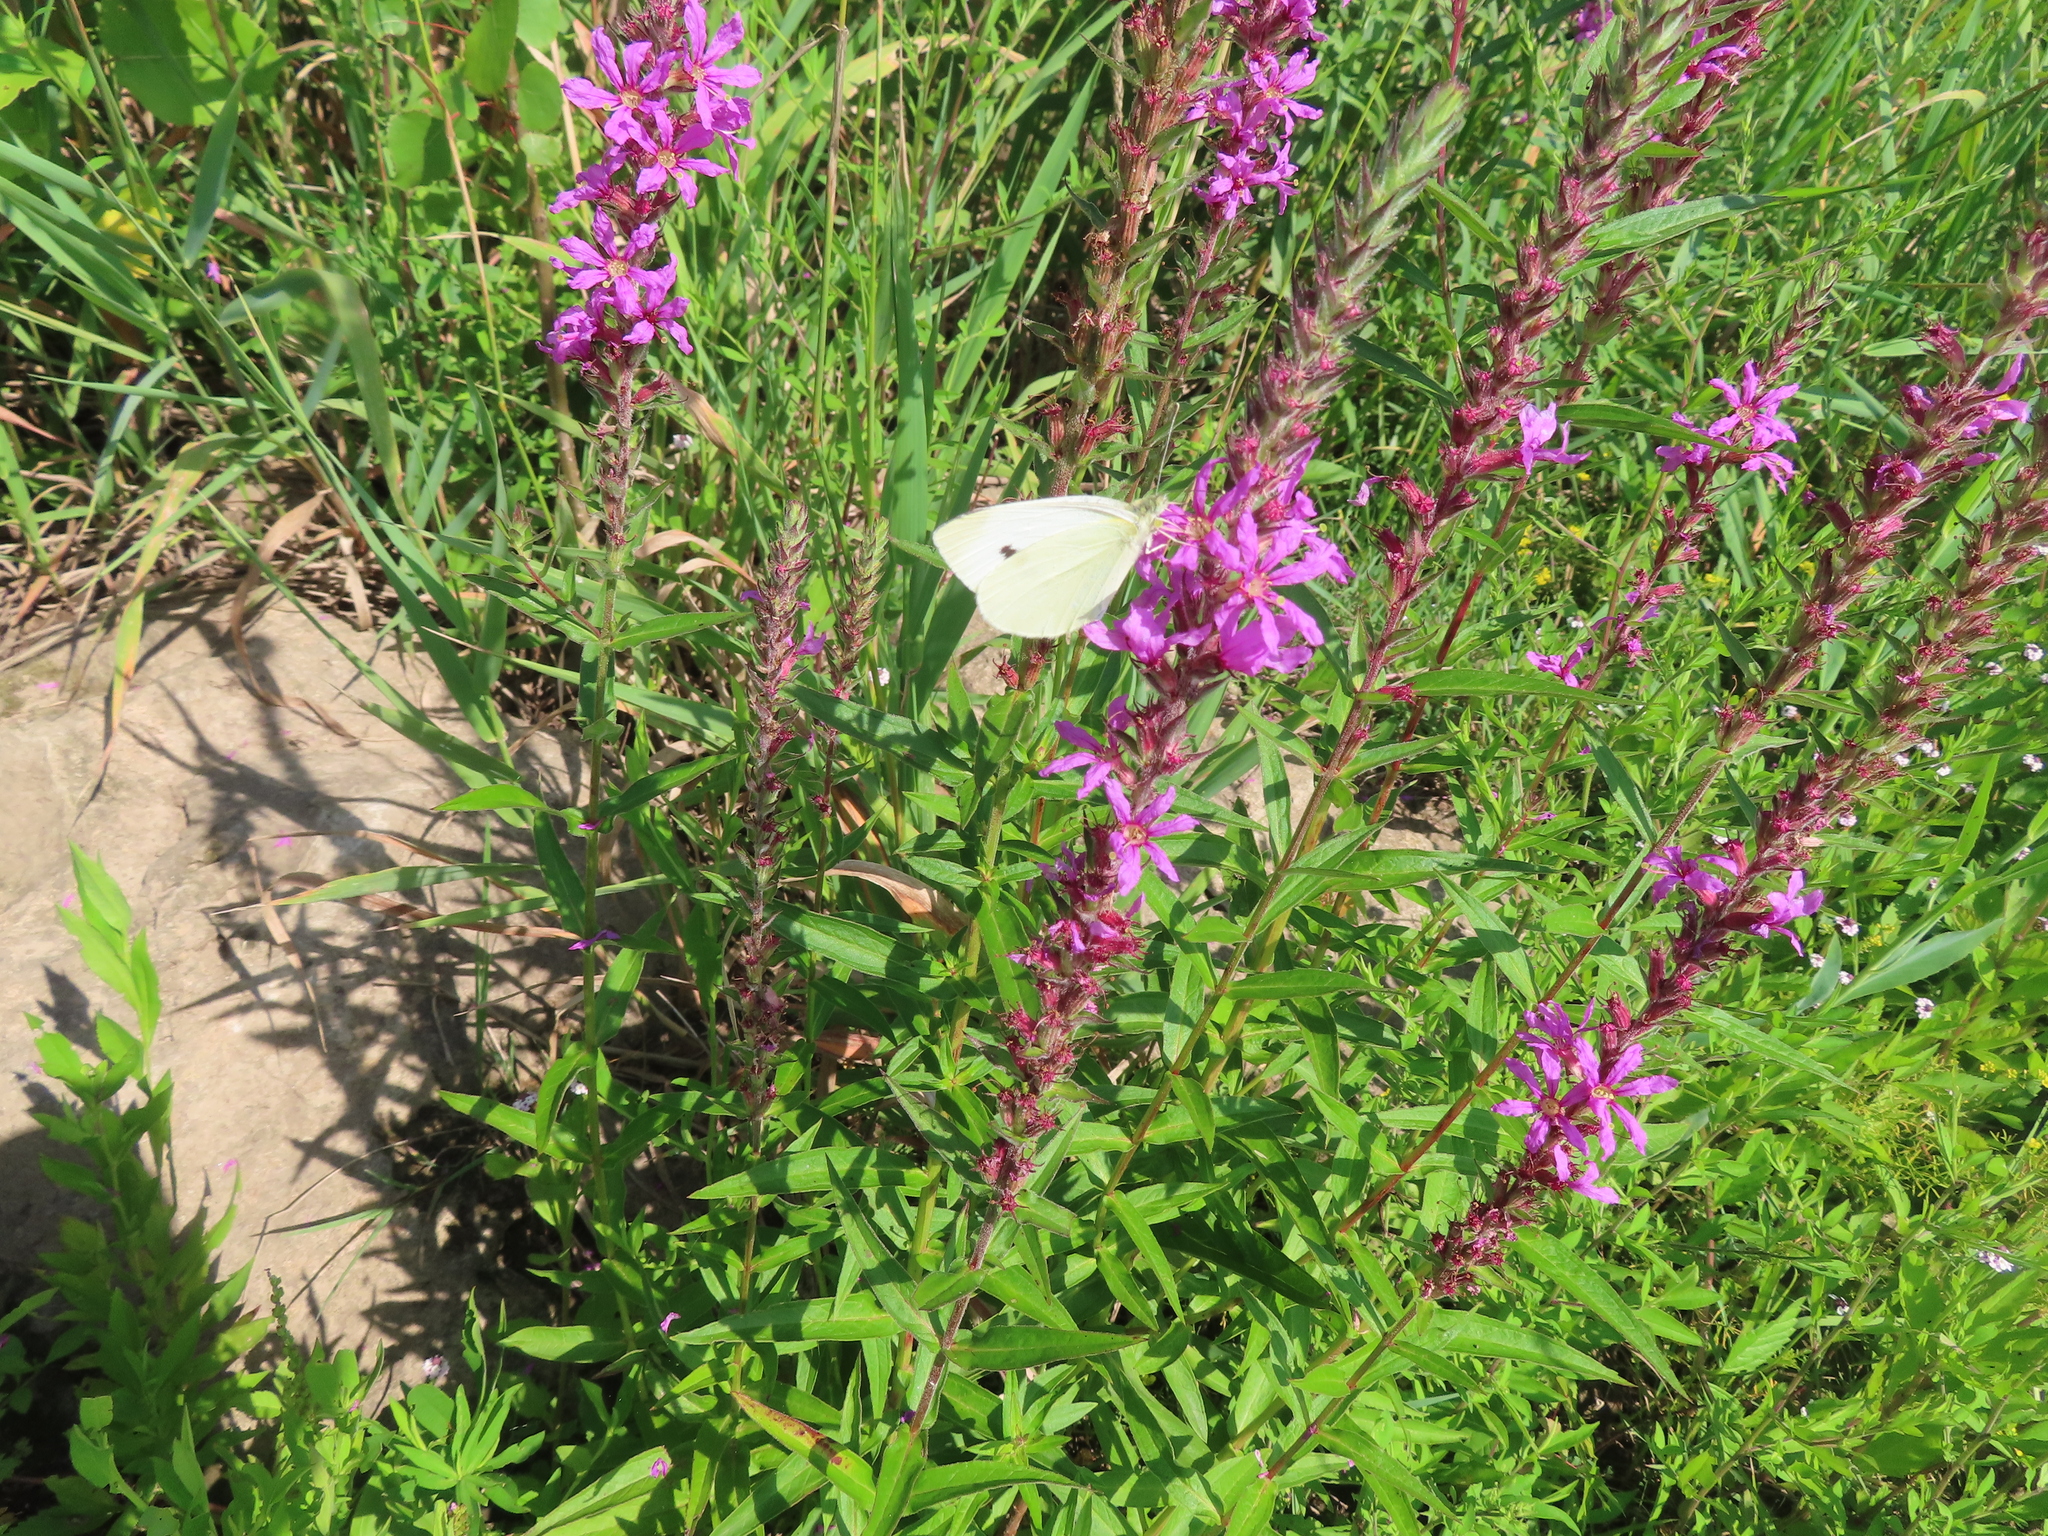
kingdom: Animalia
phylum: Arthropoda
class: Insecta
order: Lepidoptera
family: Pieridae
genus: Pieris
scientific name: Pieris rapae
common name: Small white
